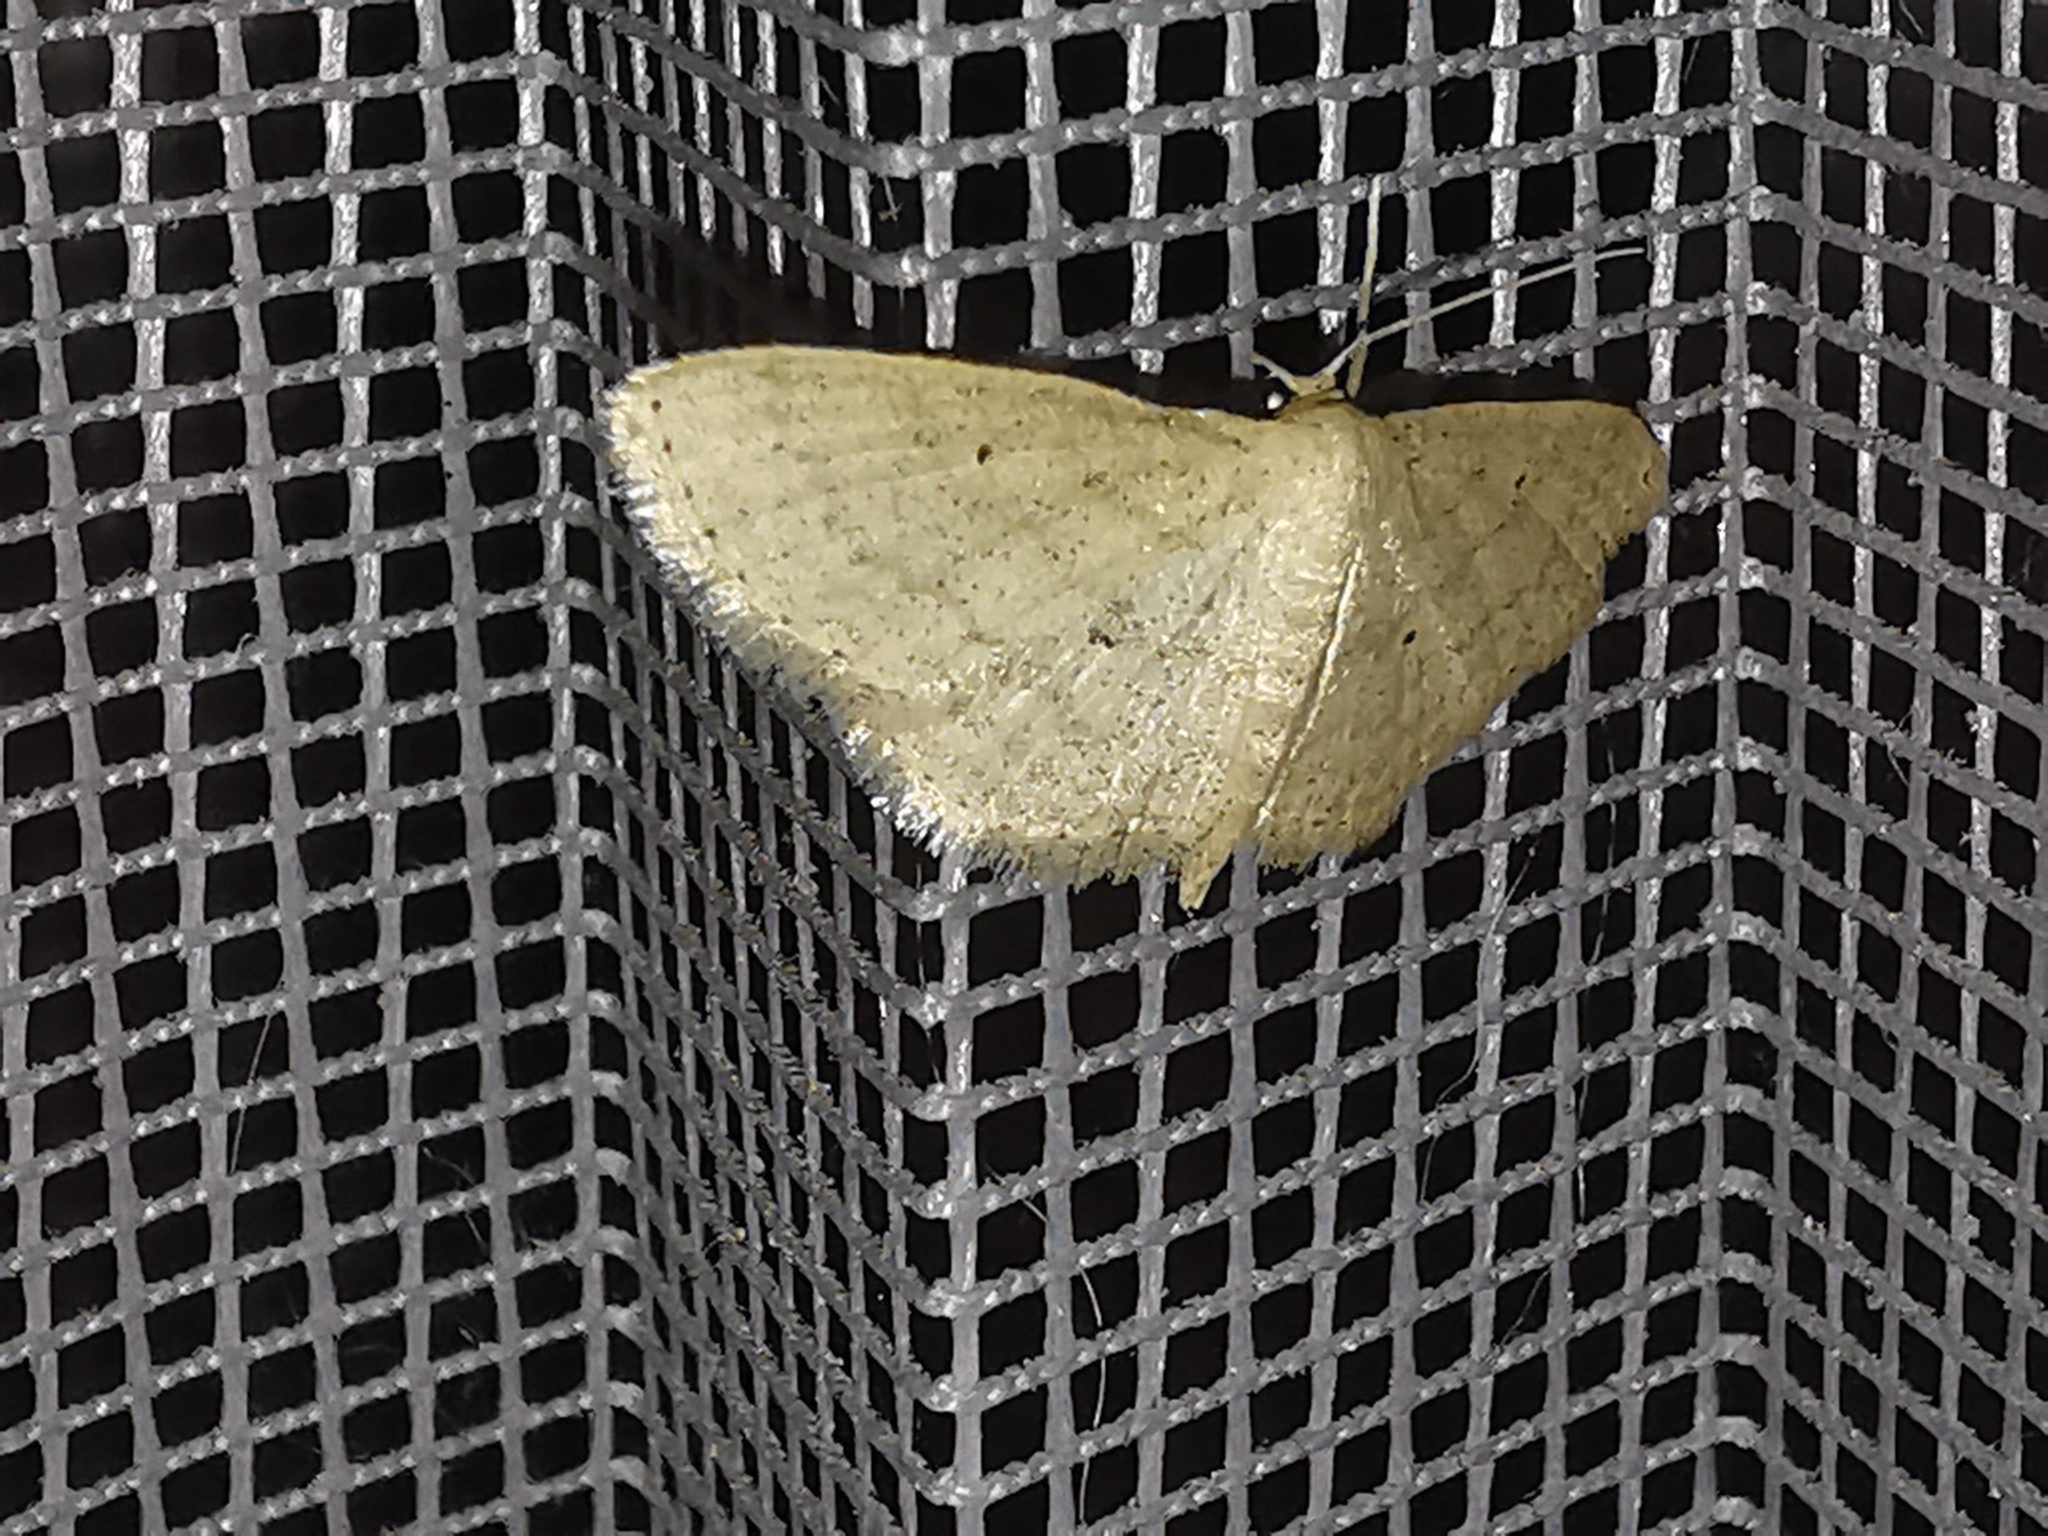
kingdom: Animalia
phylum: Arthropoda
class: Insecta
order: Lepidoptera
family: Geometridae
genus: Scopula
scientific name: Scopula minorata
